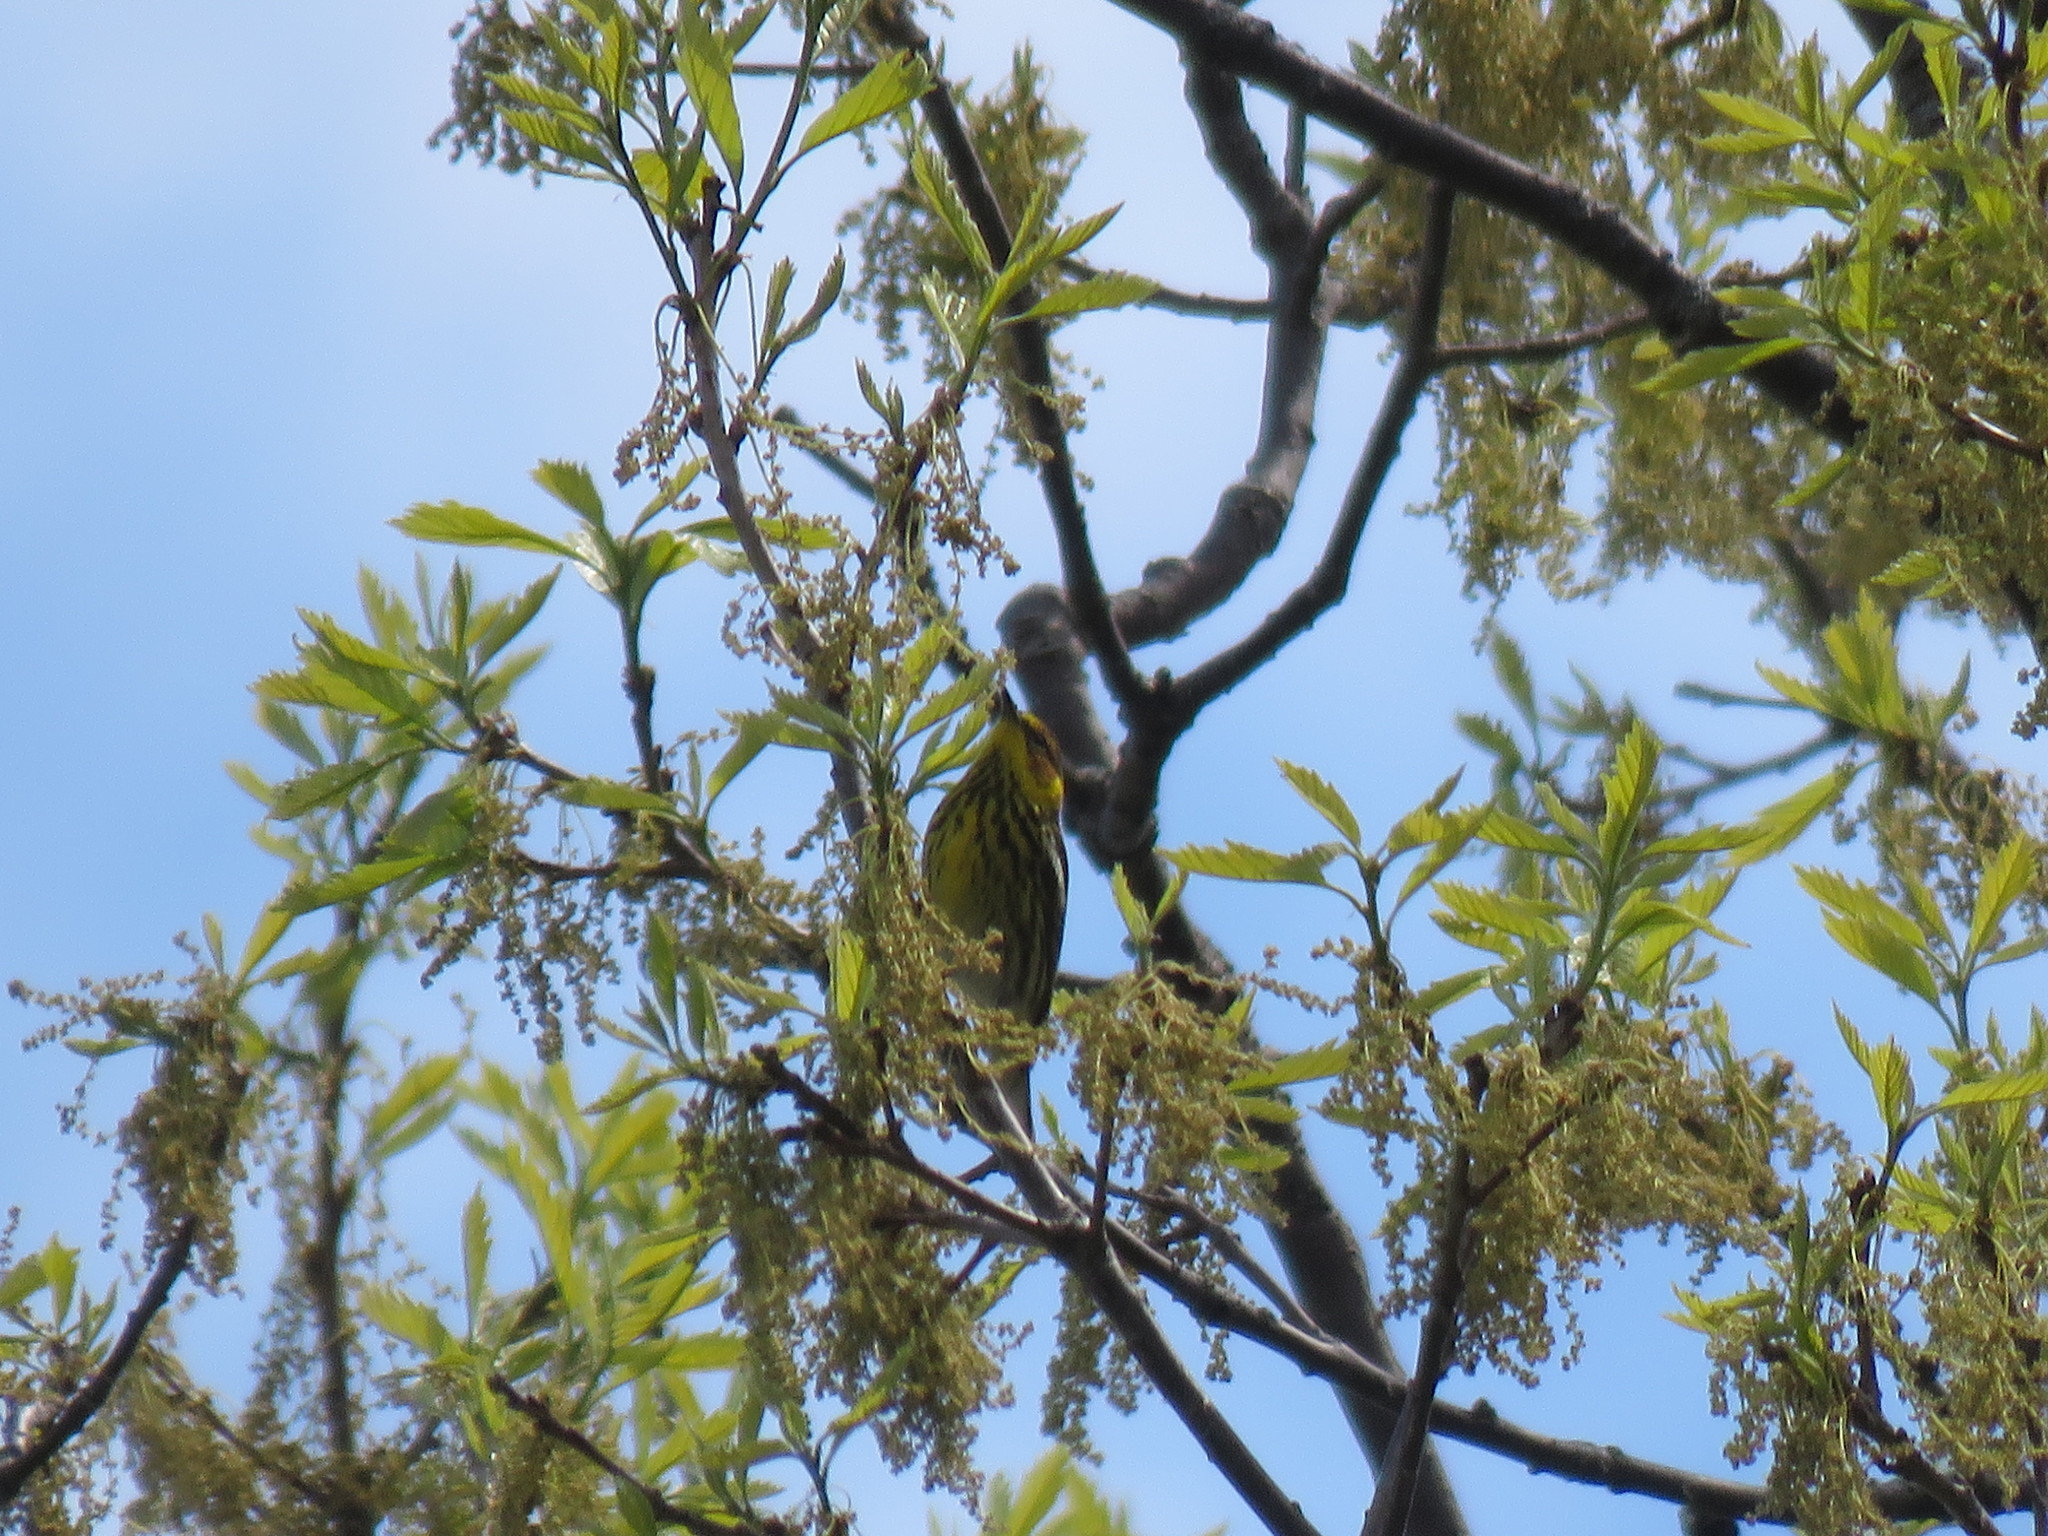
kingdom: Animalia
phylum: Chordata
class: Aves
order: Passeriformes
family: Parulidae
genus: Setophaga
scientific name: Setophaga tigrina
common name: Cape may warbler
